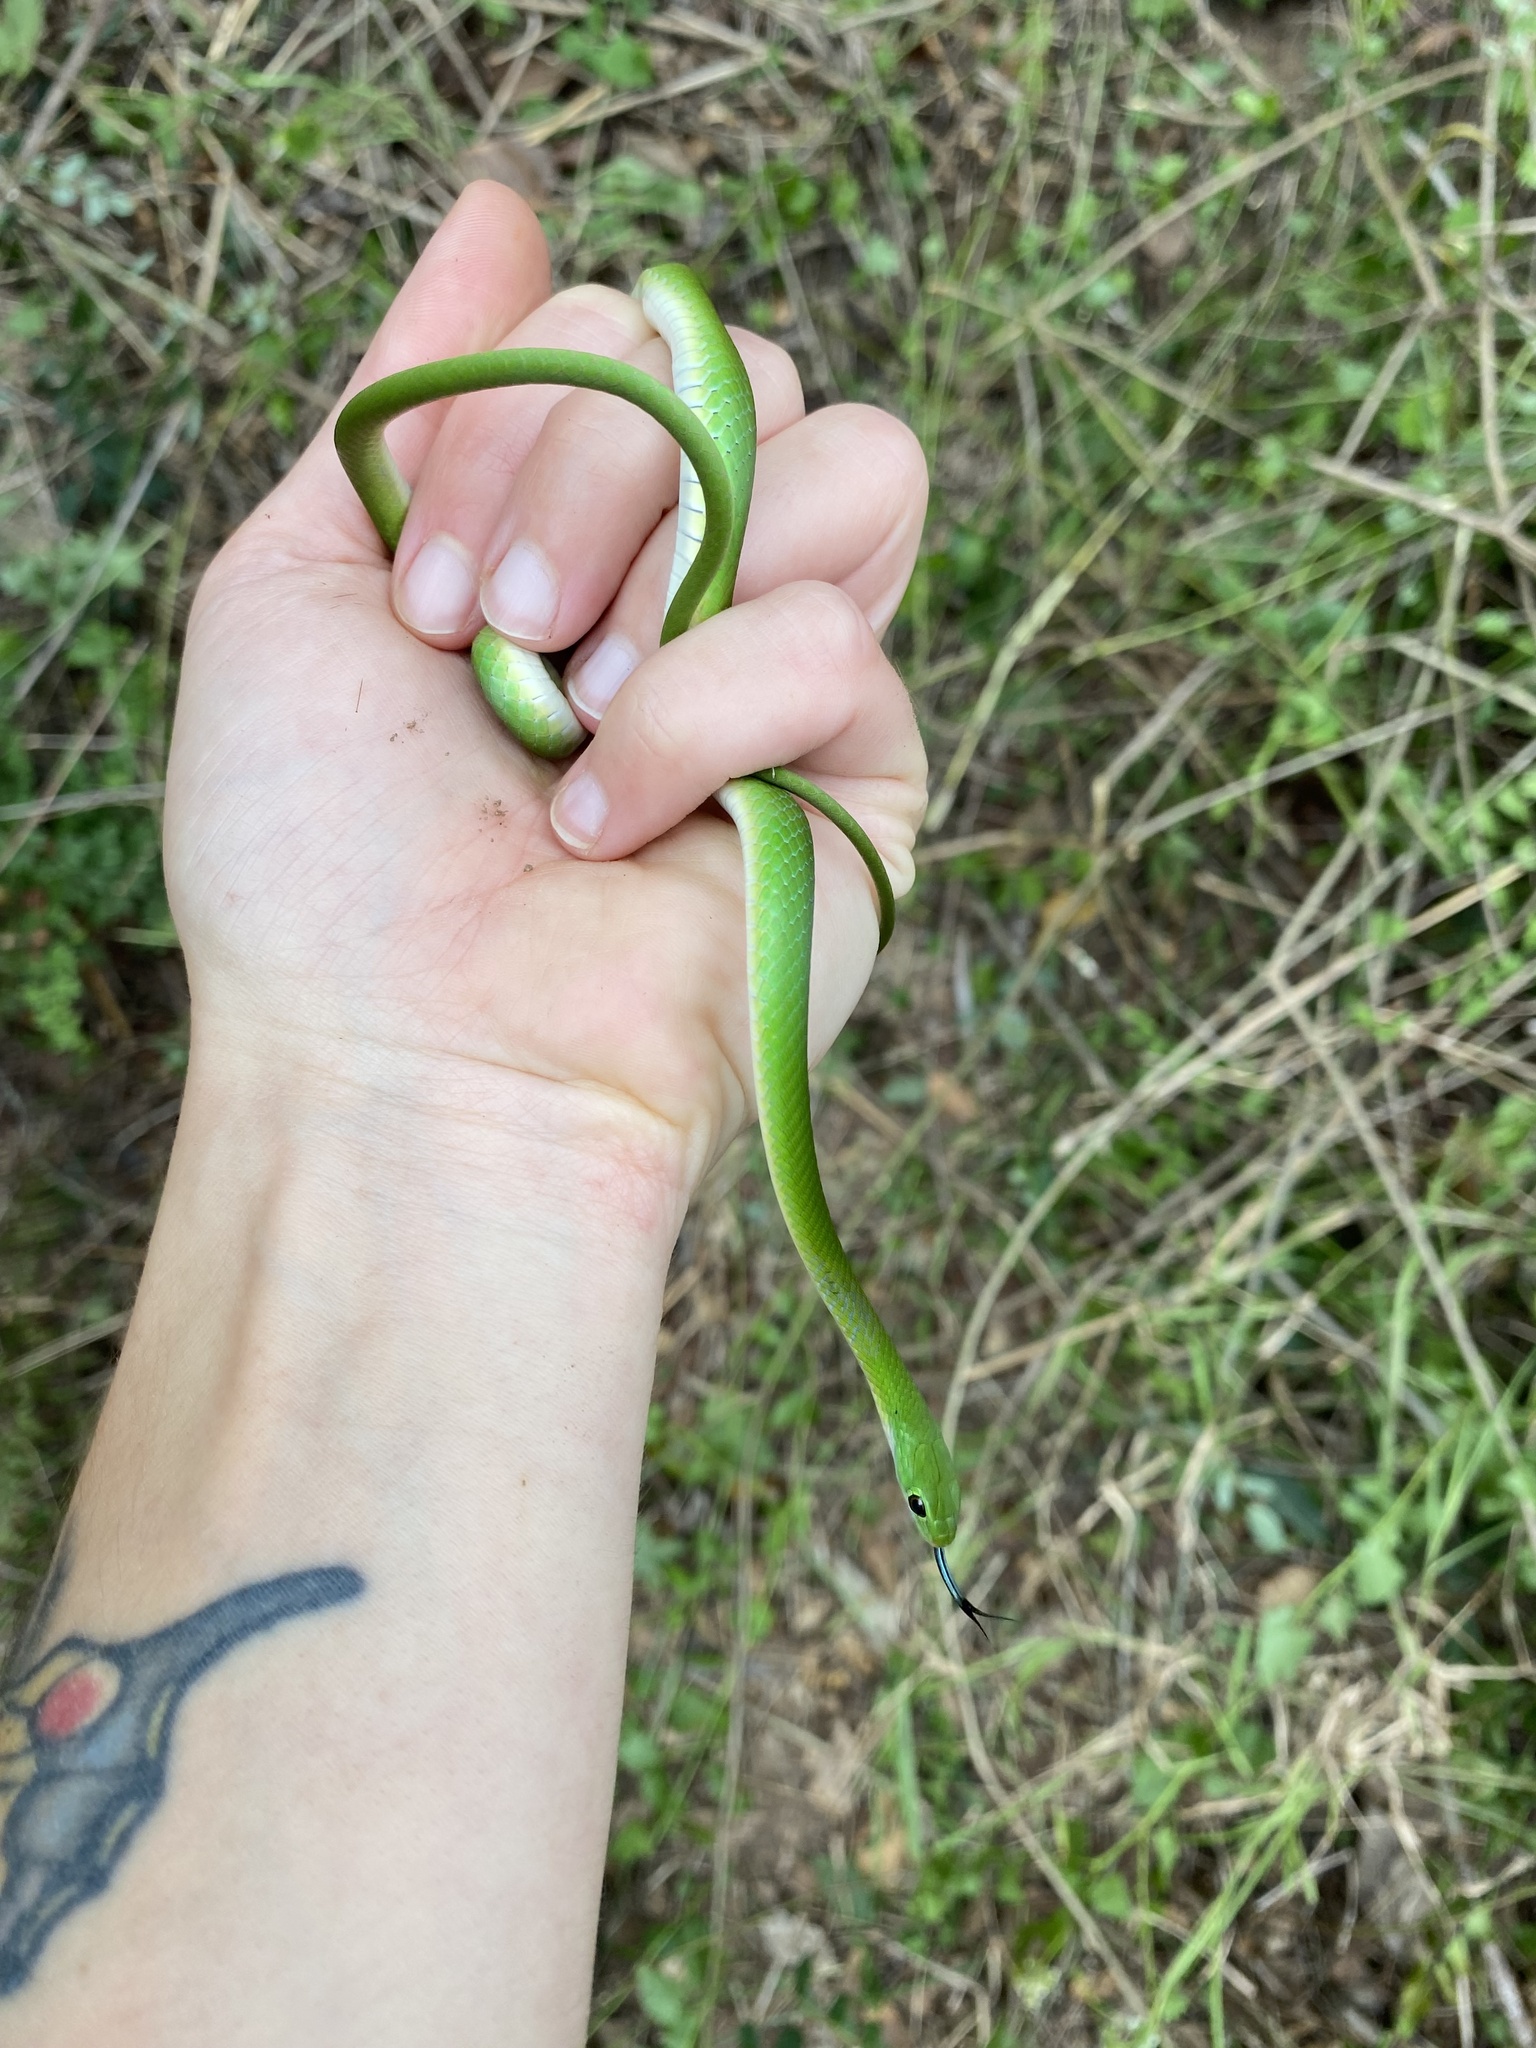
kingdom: Animalia
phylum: Chordata
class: Squamata
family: Colubridae
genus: Philothamnus
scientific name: Philothamnus hoplogaster
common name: Green water snake
